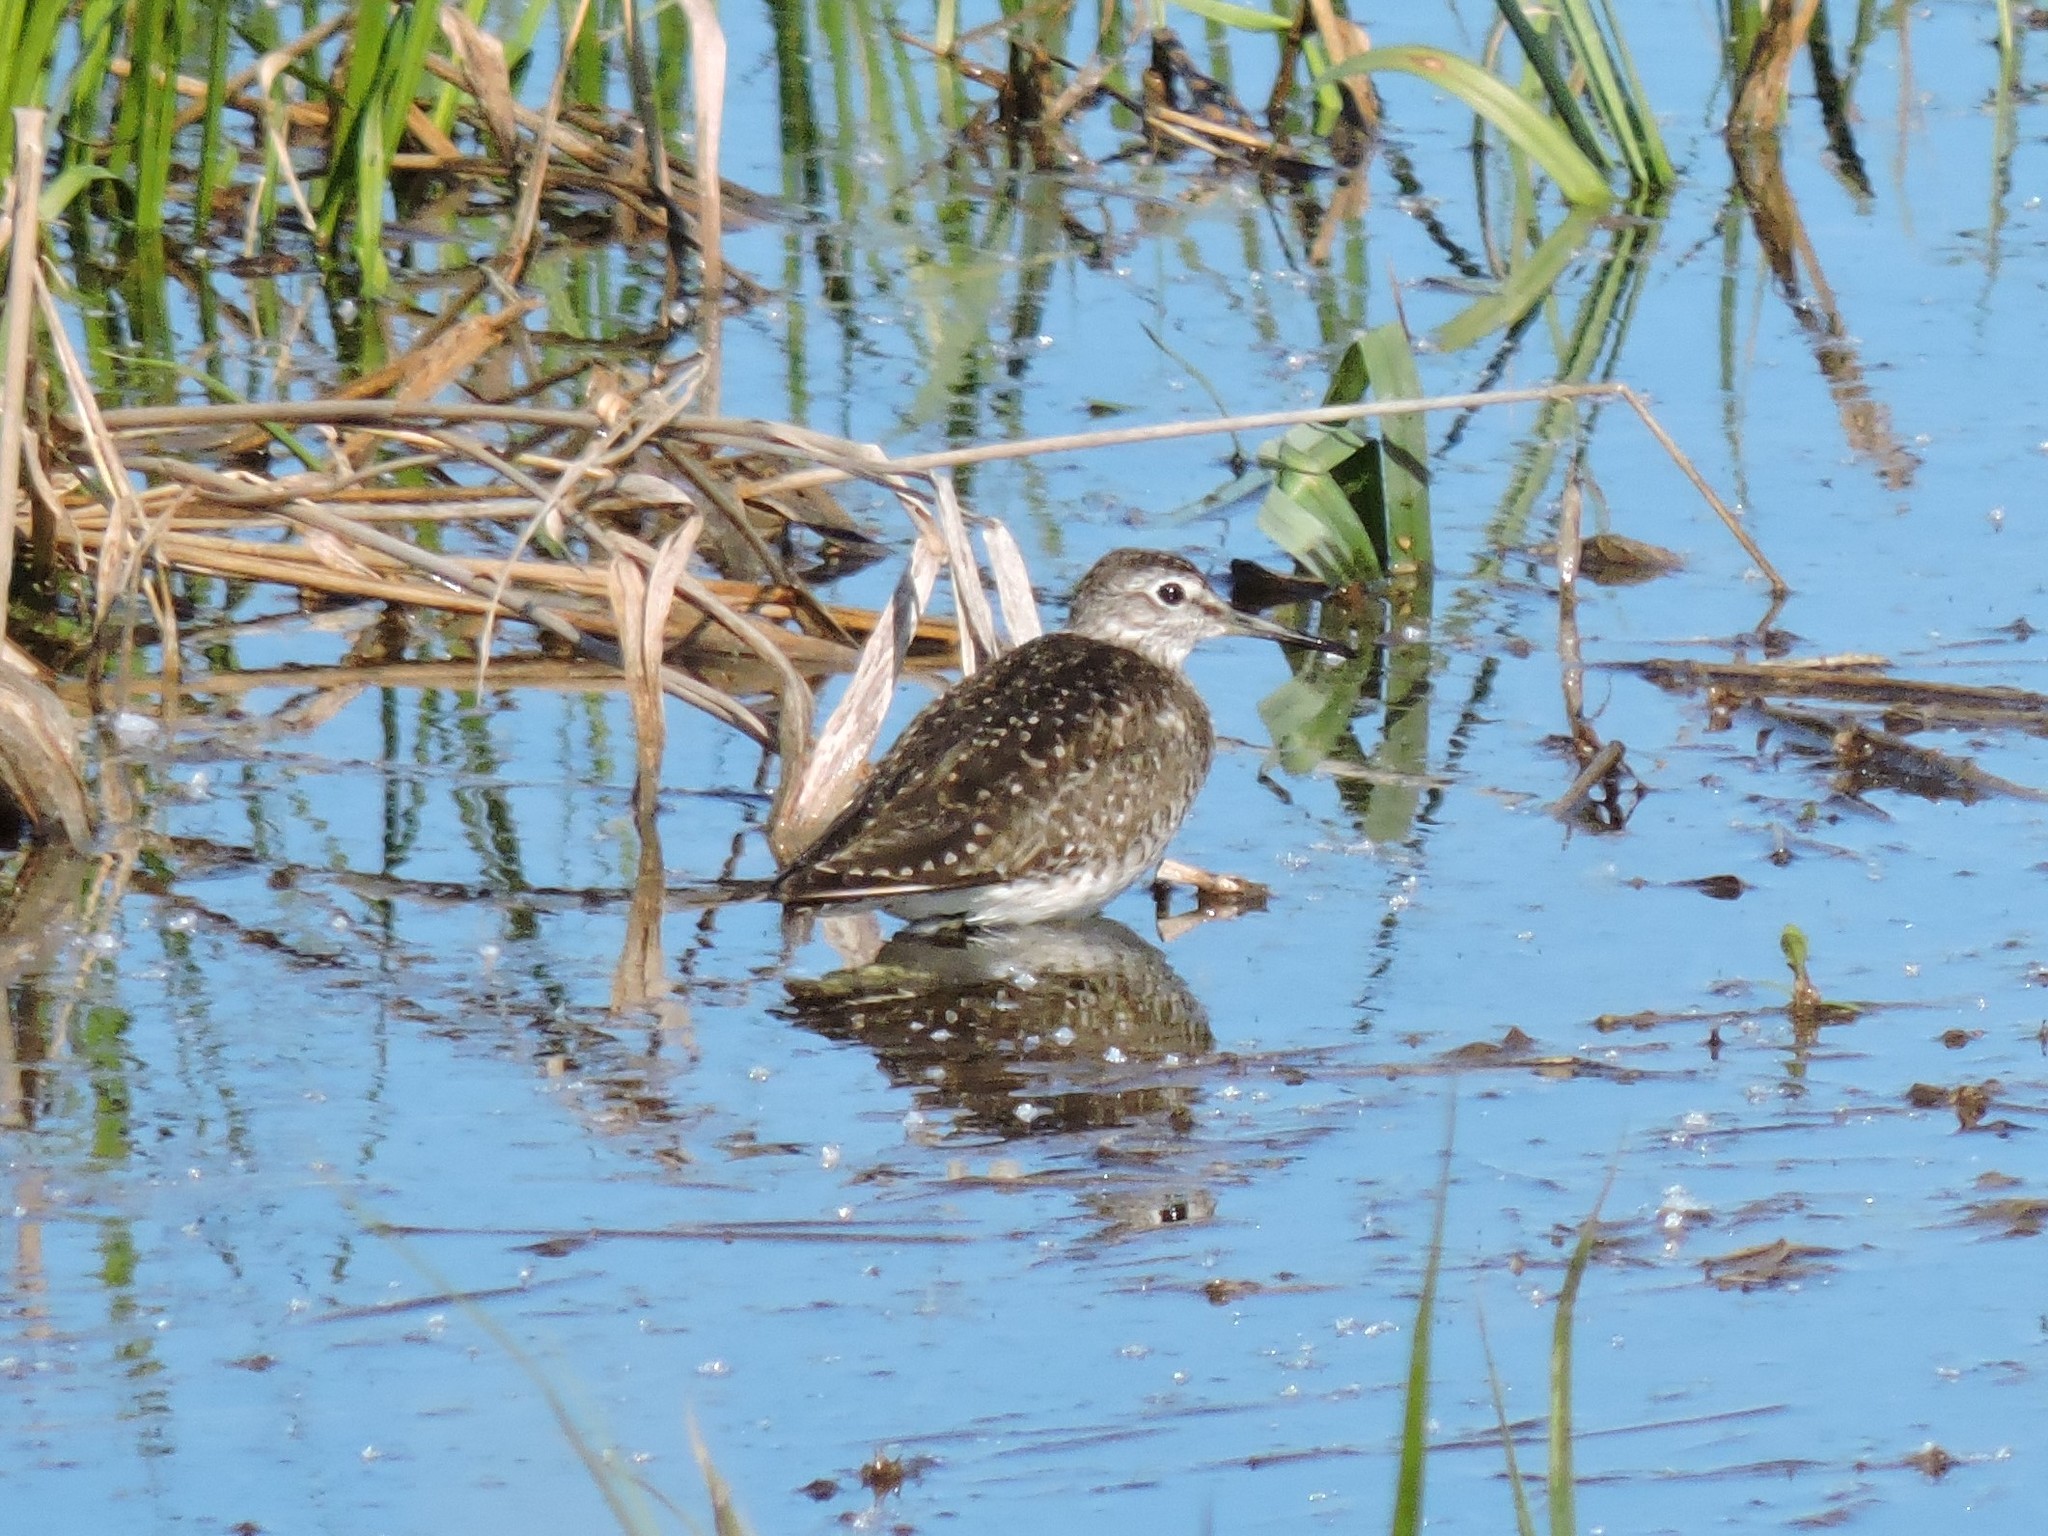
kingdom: Animalia
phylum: Chordata
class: Aves
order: Charadriiformes
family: Scolopacidae
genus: Tringa
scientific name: Tringa ochropus
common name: Green sandpiper
